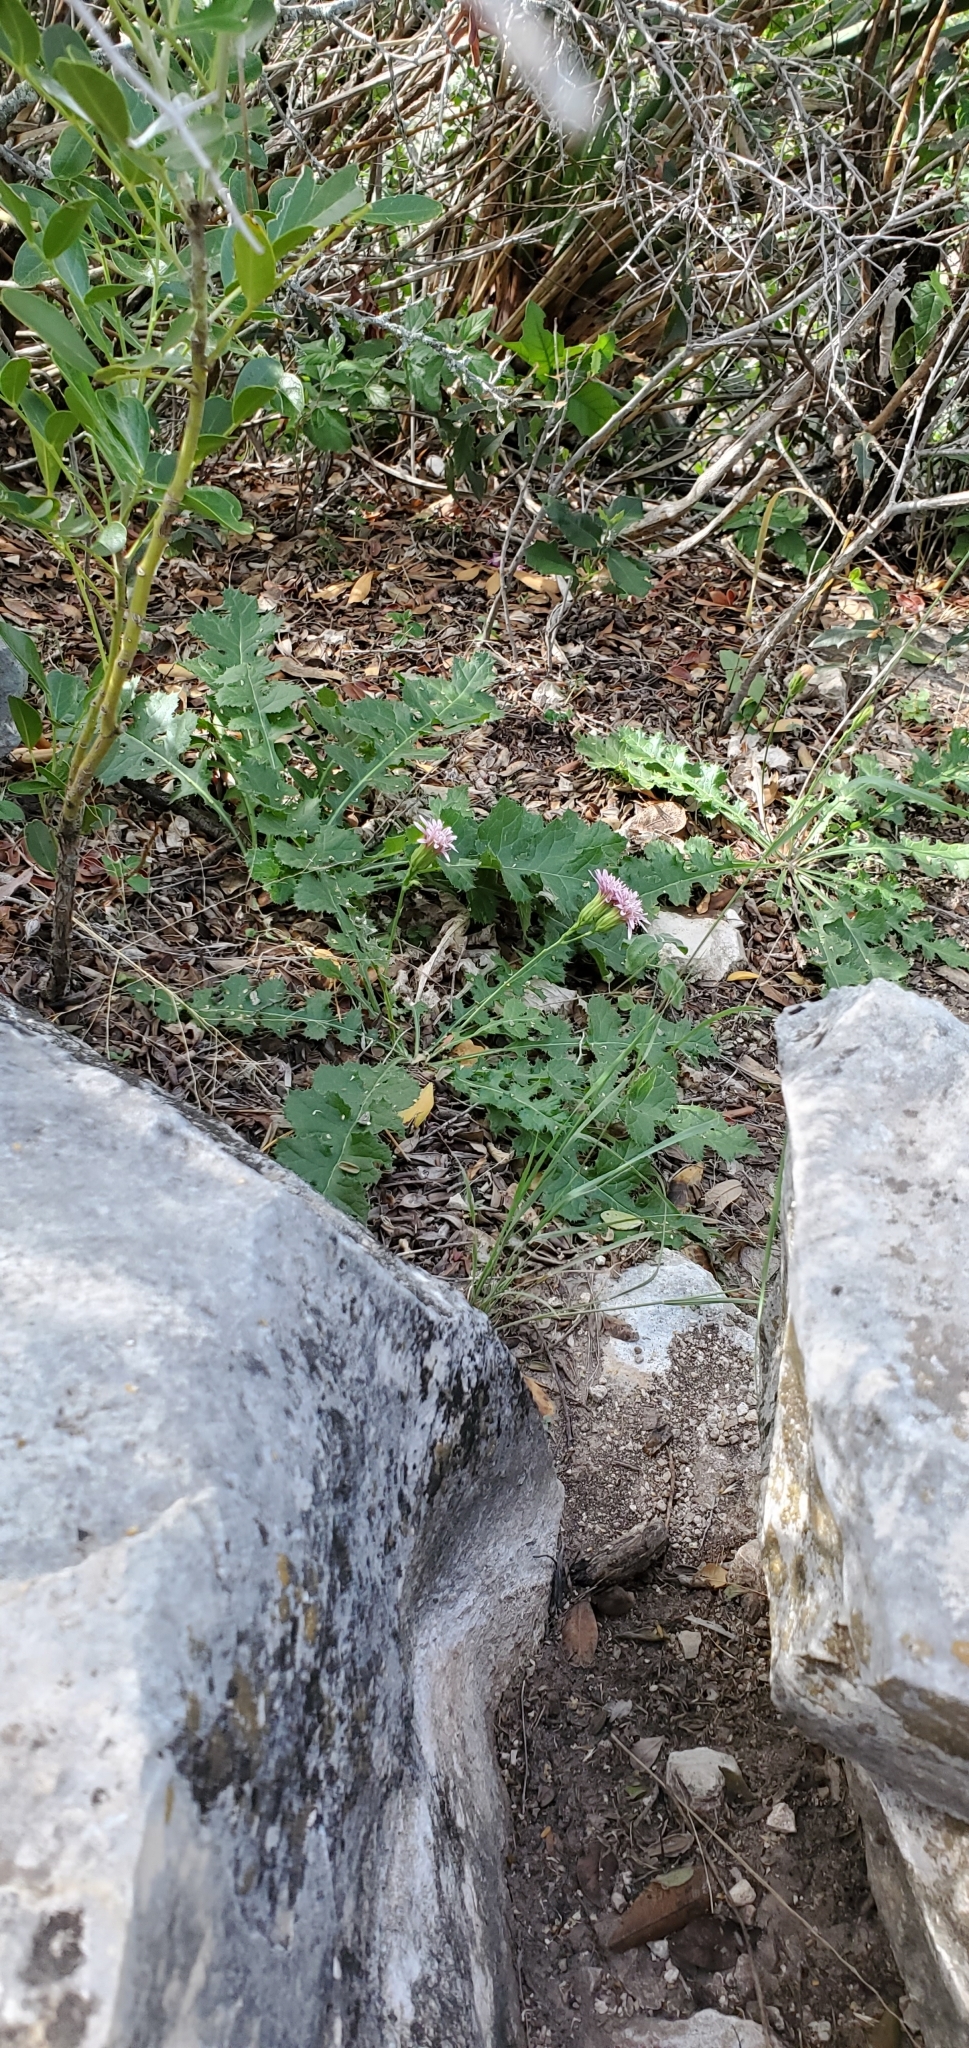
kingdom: Plantae
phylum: Tracheophyta
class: Magnoliopsida
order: Asterales
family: Asteraceae
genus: Acourtia
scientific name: Acourtia runcinata
